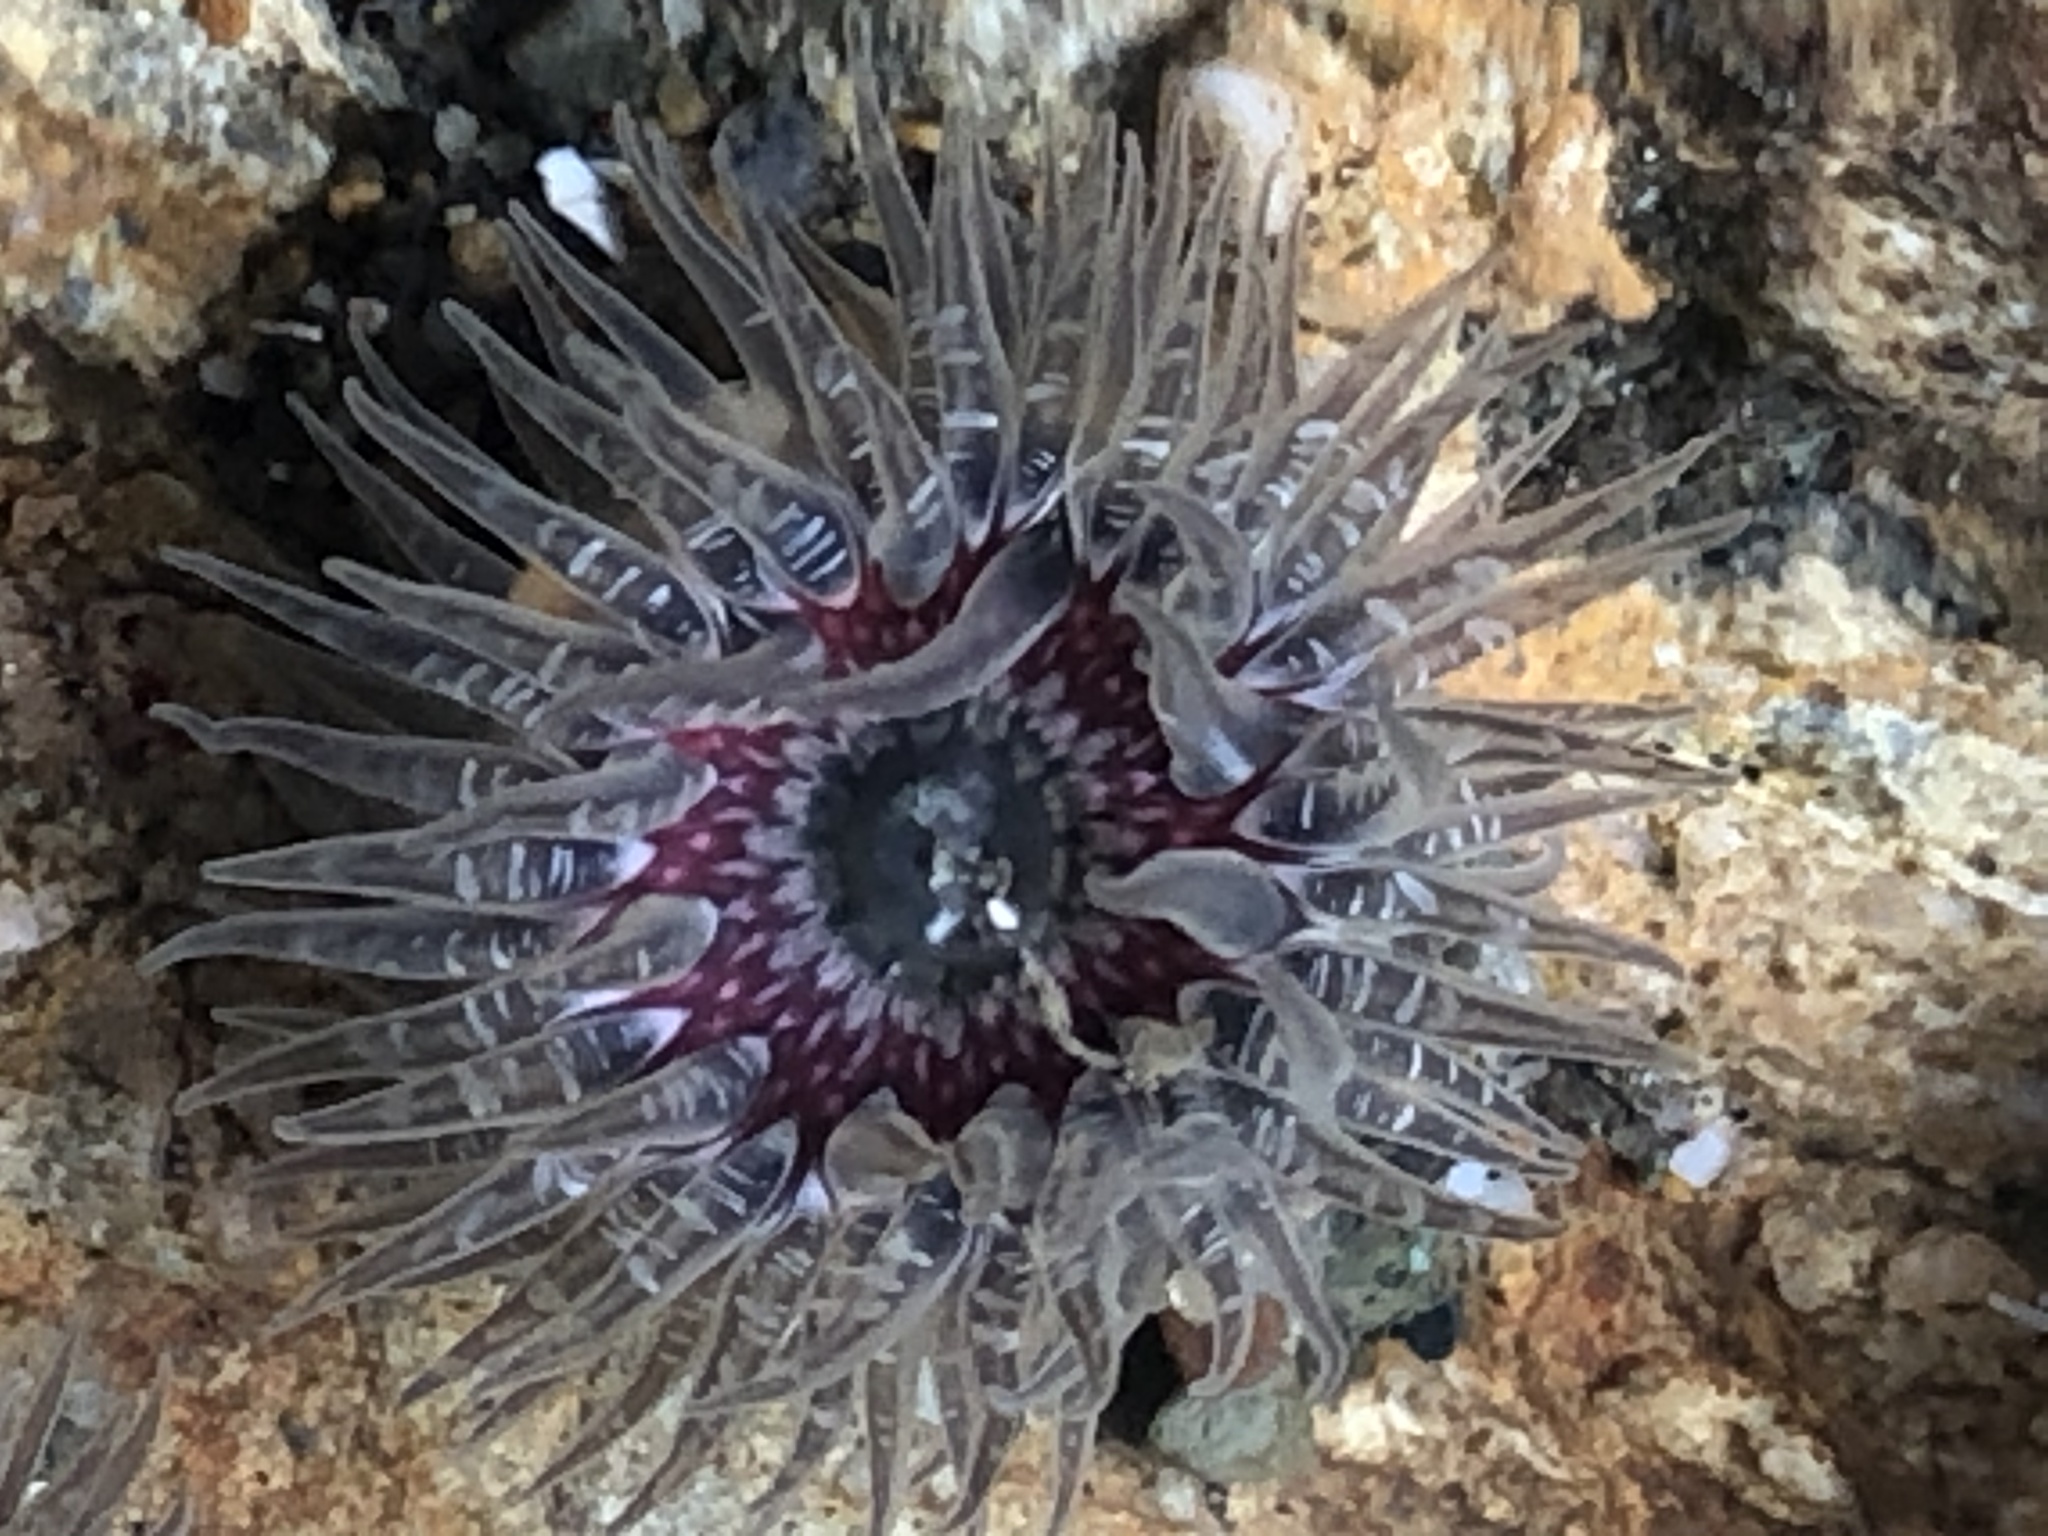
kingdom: Animalia
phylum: Cnidaria
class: Anthozoa
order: Actiniaria
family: Actiniidae
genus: Anthopleura
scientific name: Anthopleura artemisia
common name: Buried sea anemone
